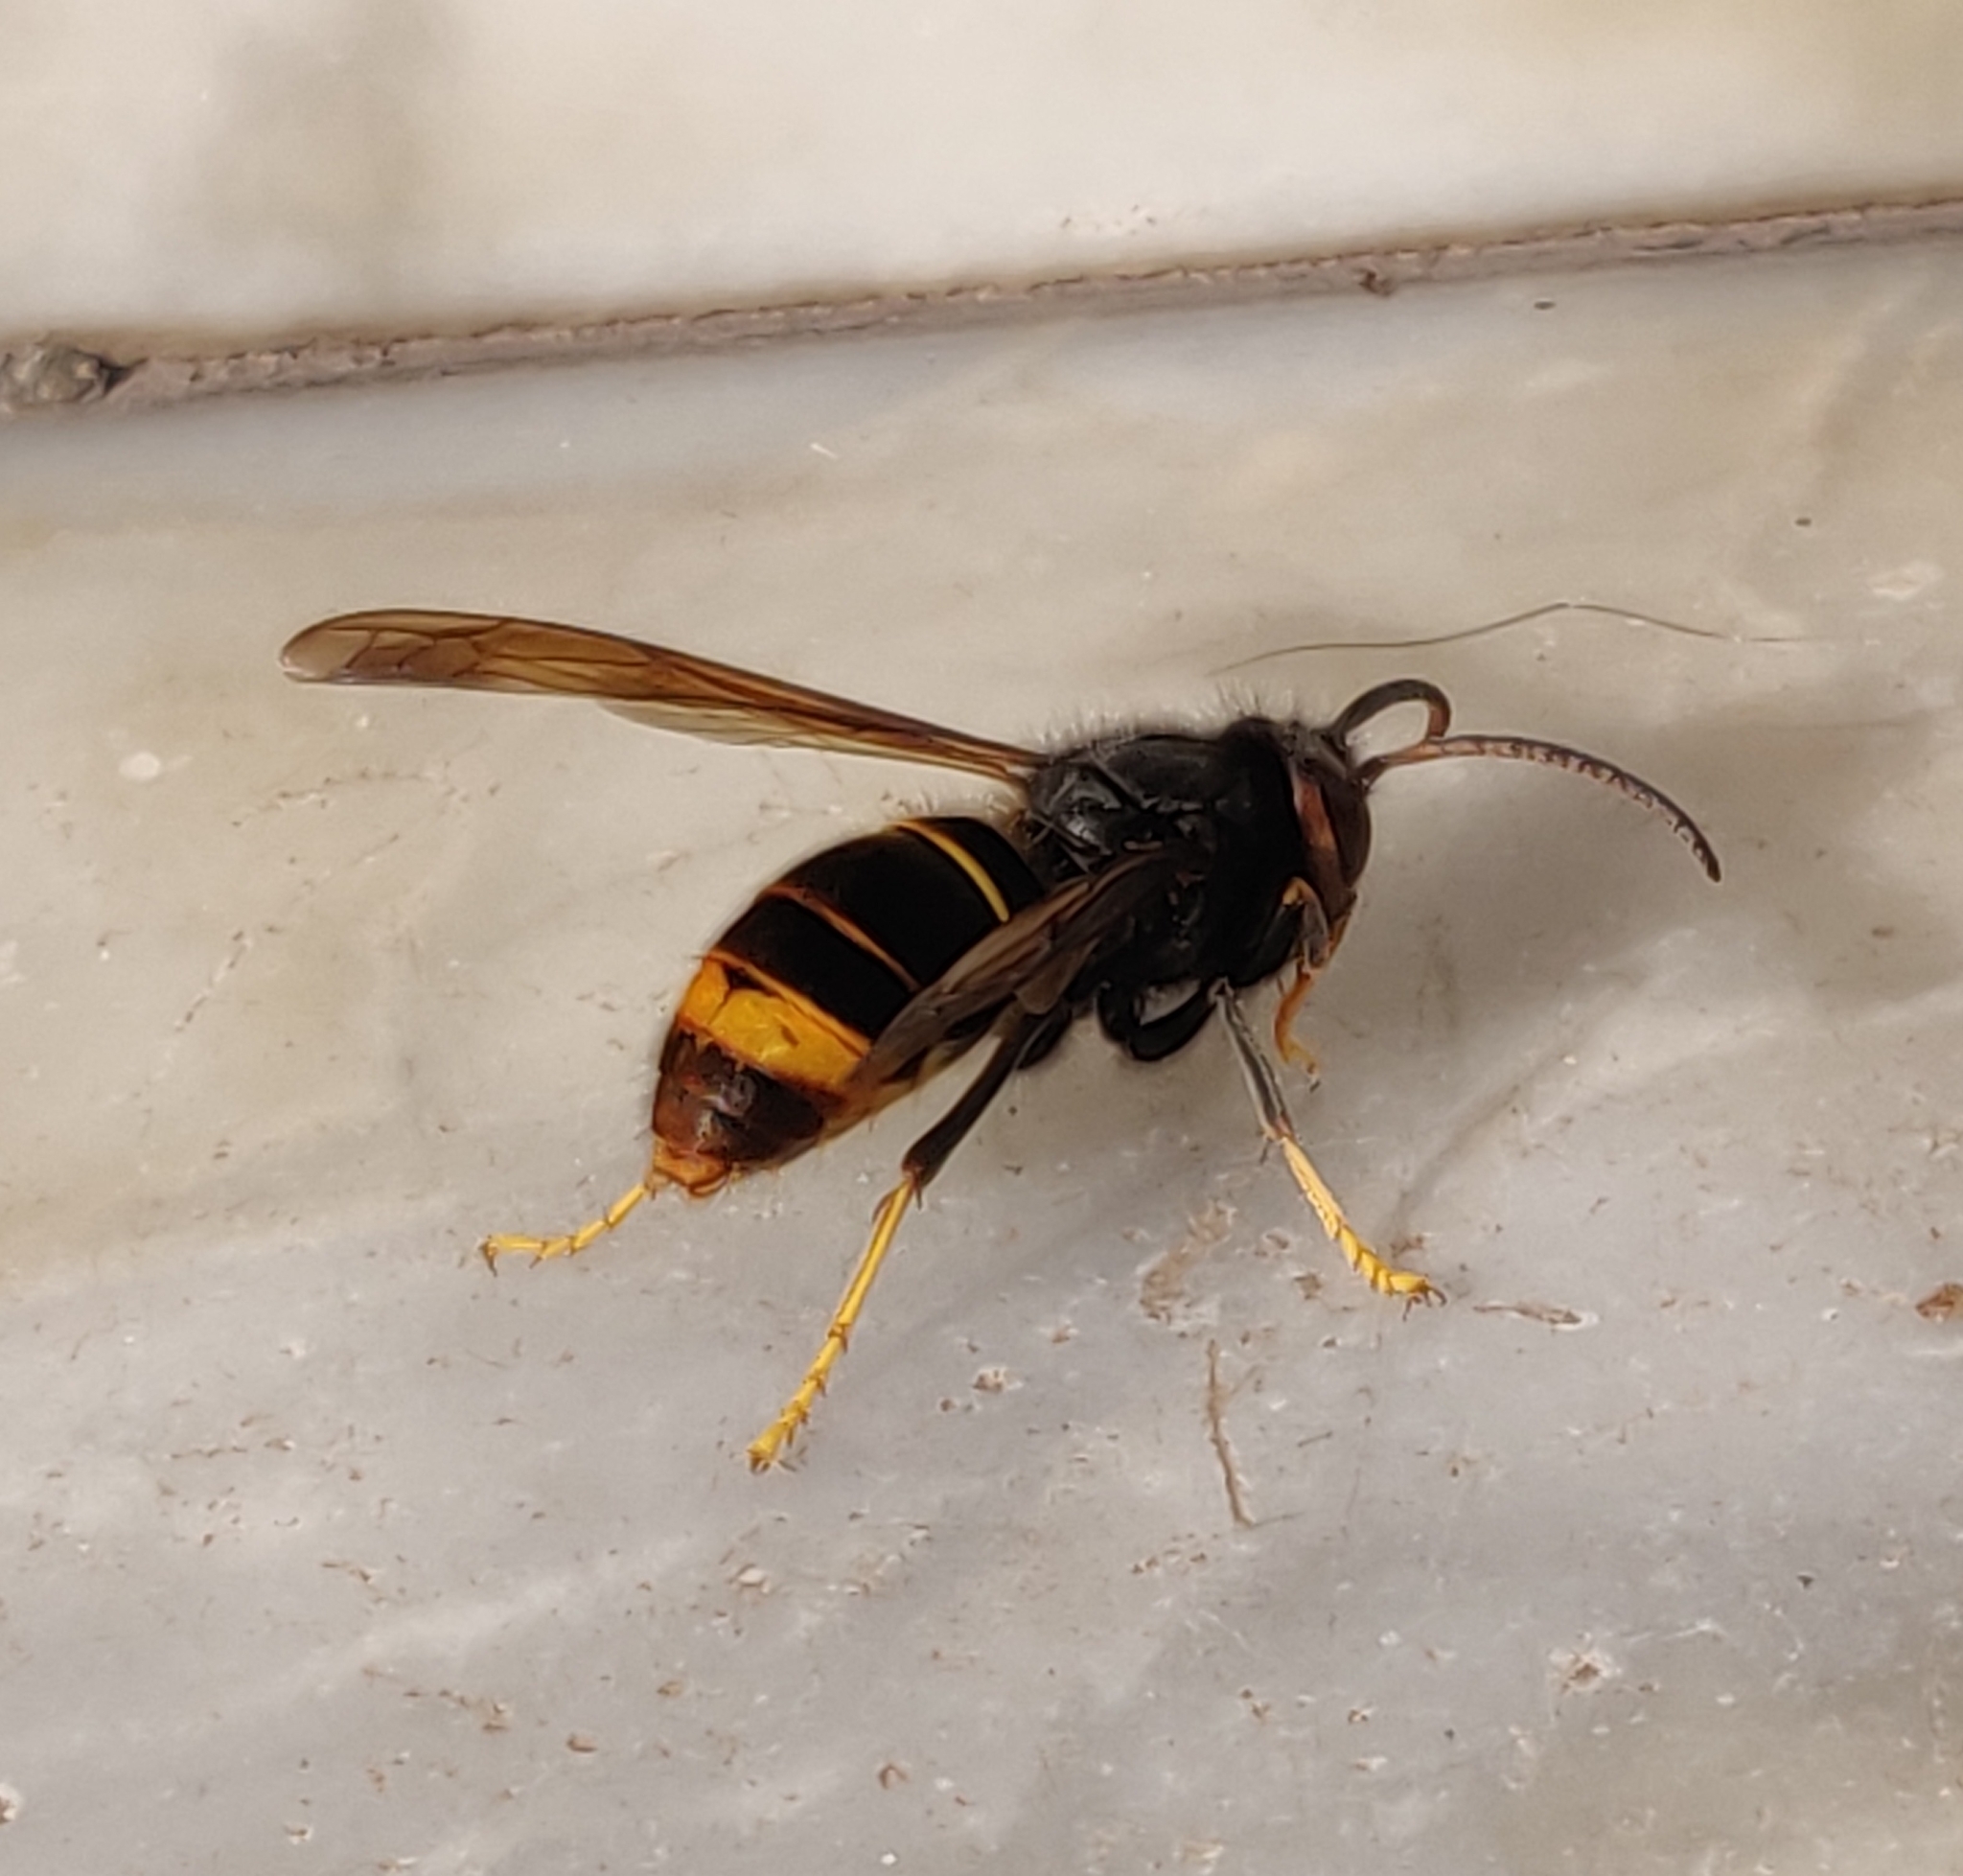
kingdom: Animalia
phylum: Arthropoda
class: Insecta
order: Hymenoptera
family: Vespidae
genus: Vespa
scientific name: Vespa velutina
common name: Asian hornet
